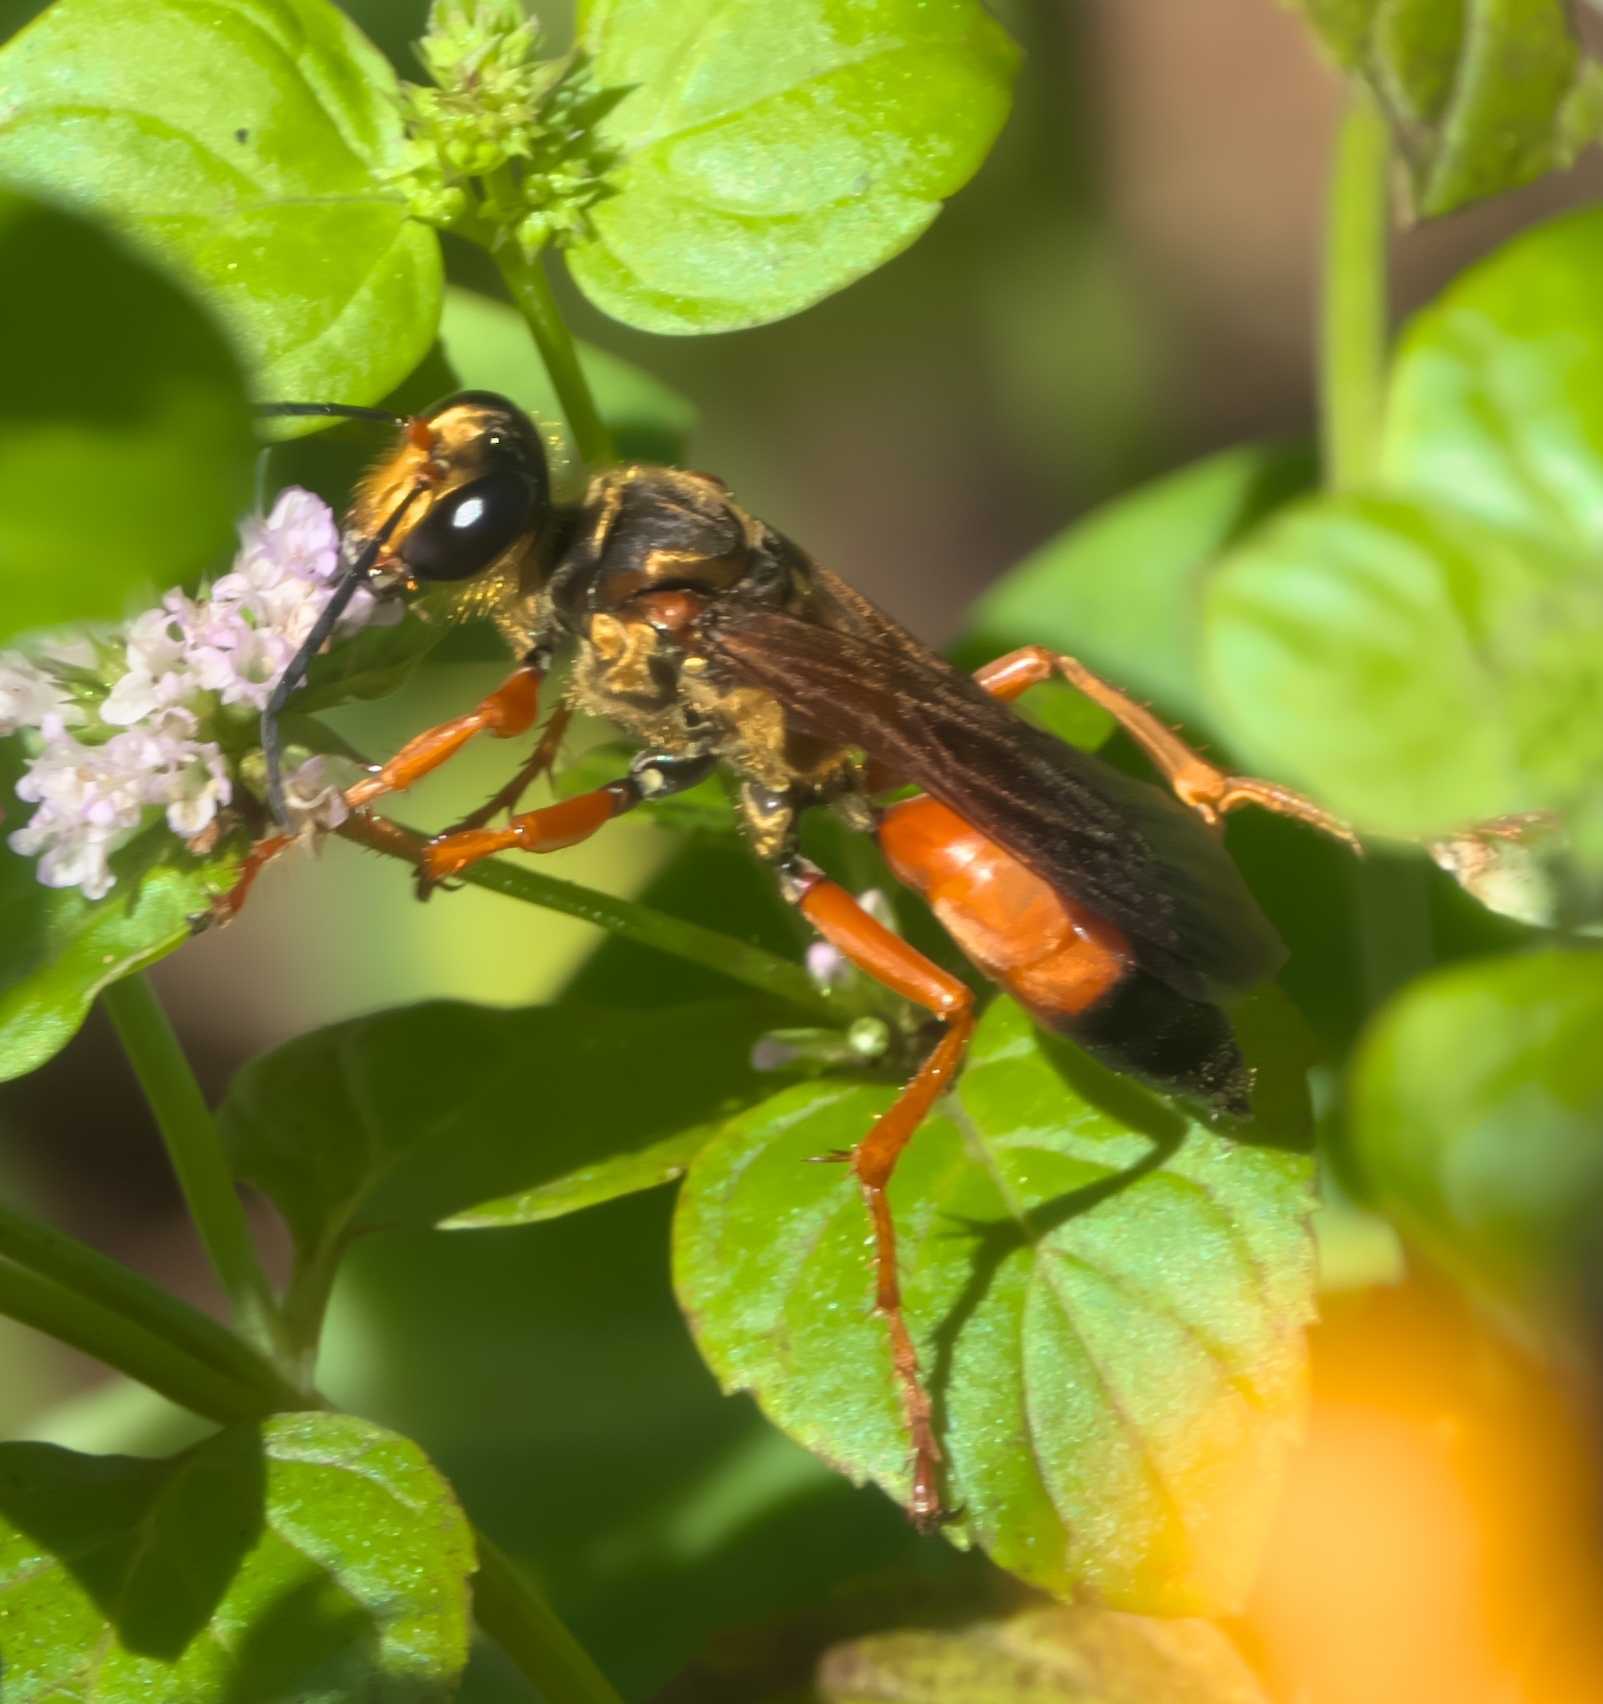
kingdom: Animalia
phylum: Arthropoda
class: Insecta
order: Hymenoptera
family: Sphecidae
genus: Sphex
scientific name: Sphex ichneumoneus
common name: Great golden digger wasp
